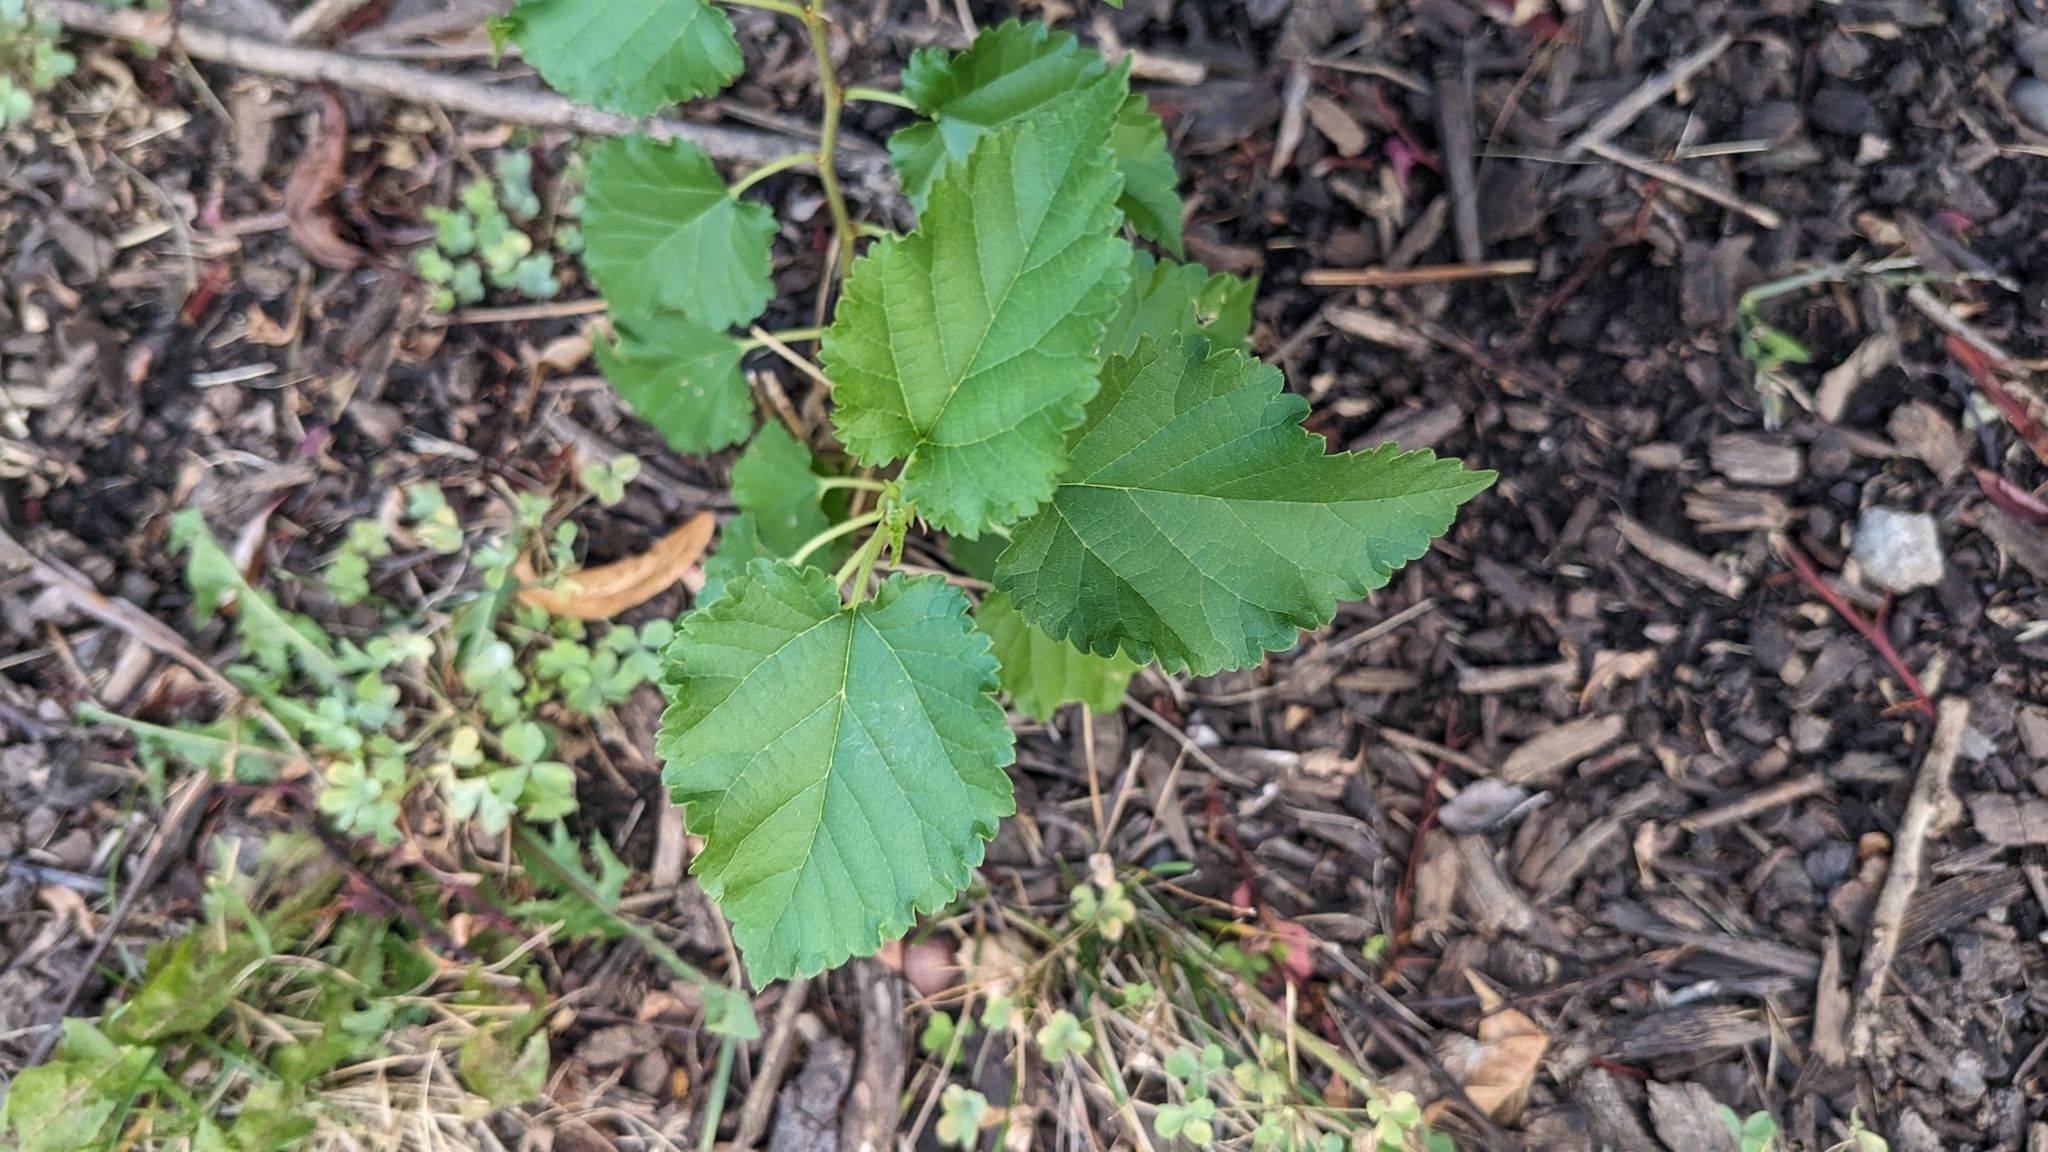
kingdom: Plantae
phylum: Tracheophyta
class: Magnoliopsida
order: Rosales
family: Moraceae
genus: Morus
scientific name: Morus alba
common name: White mulberry
